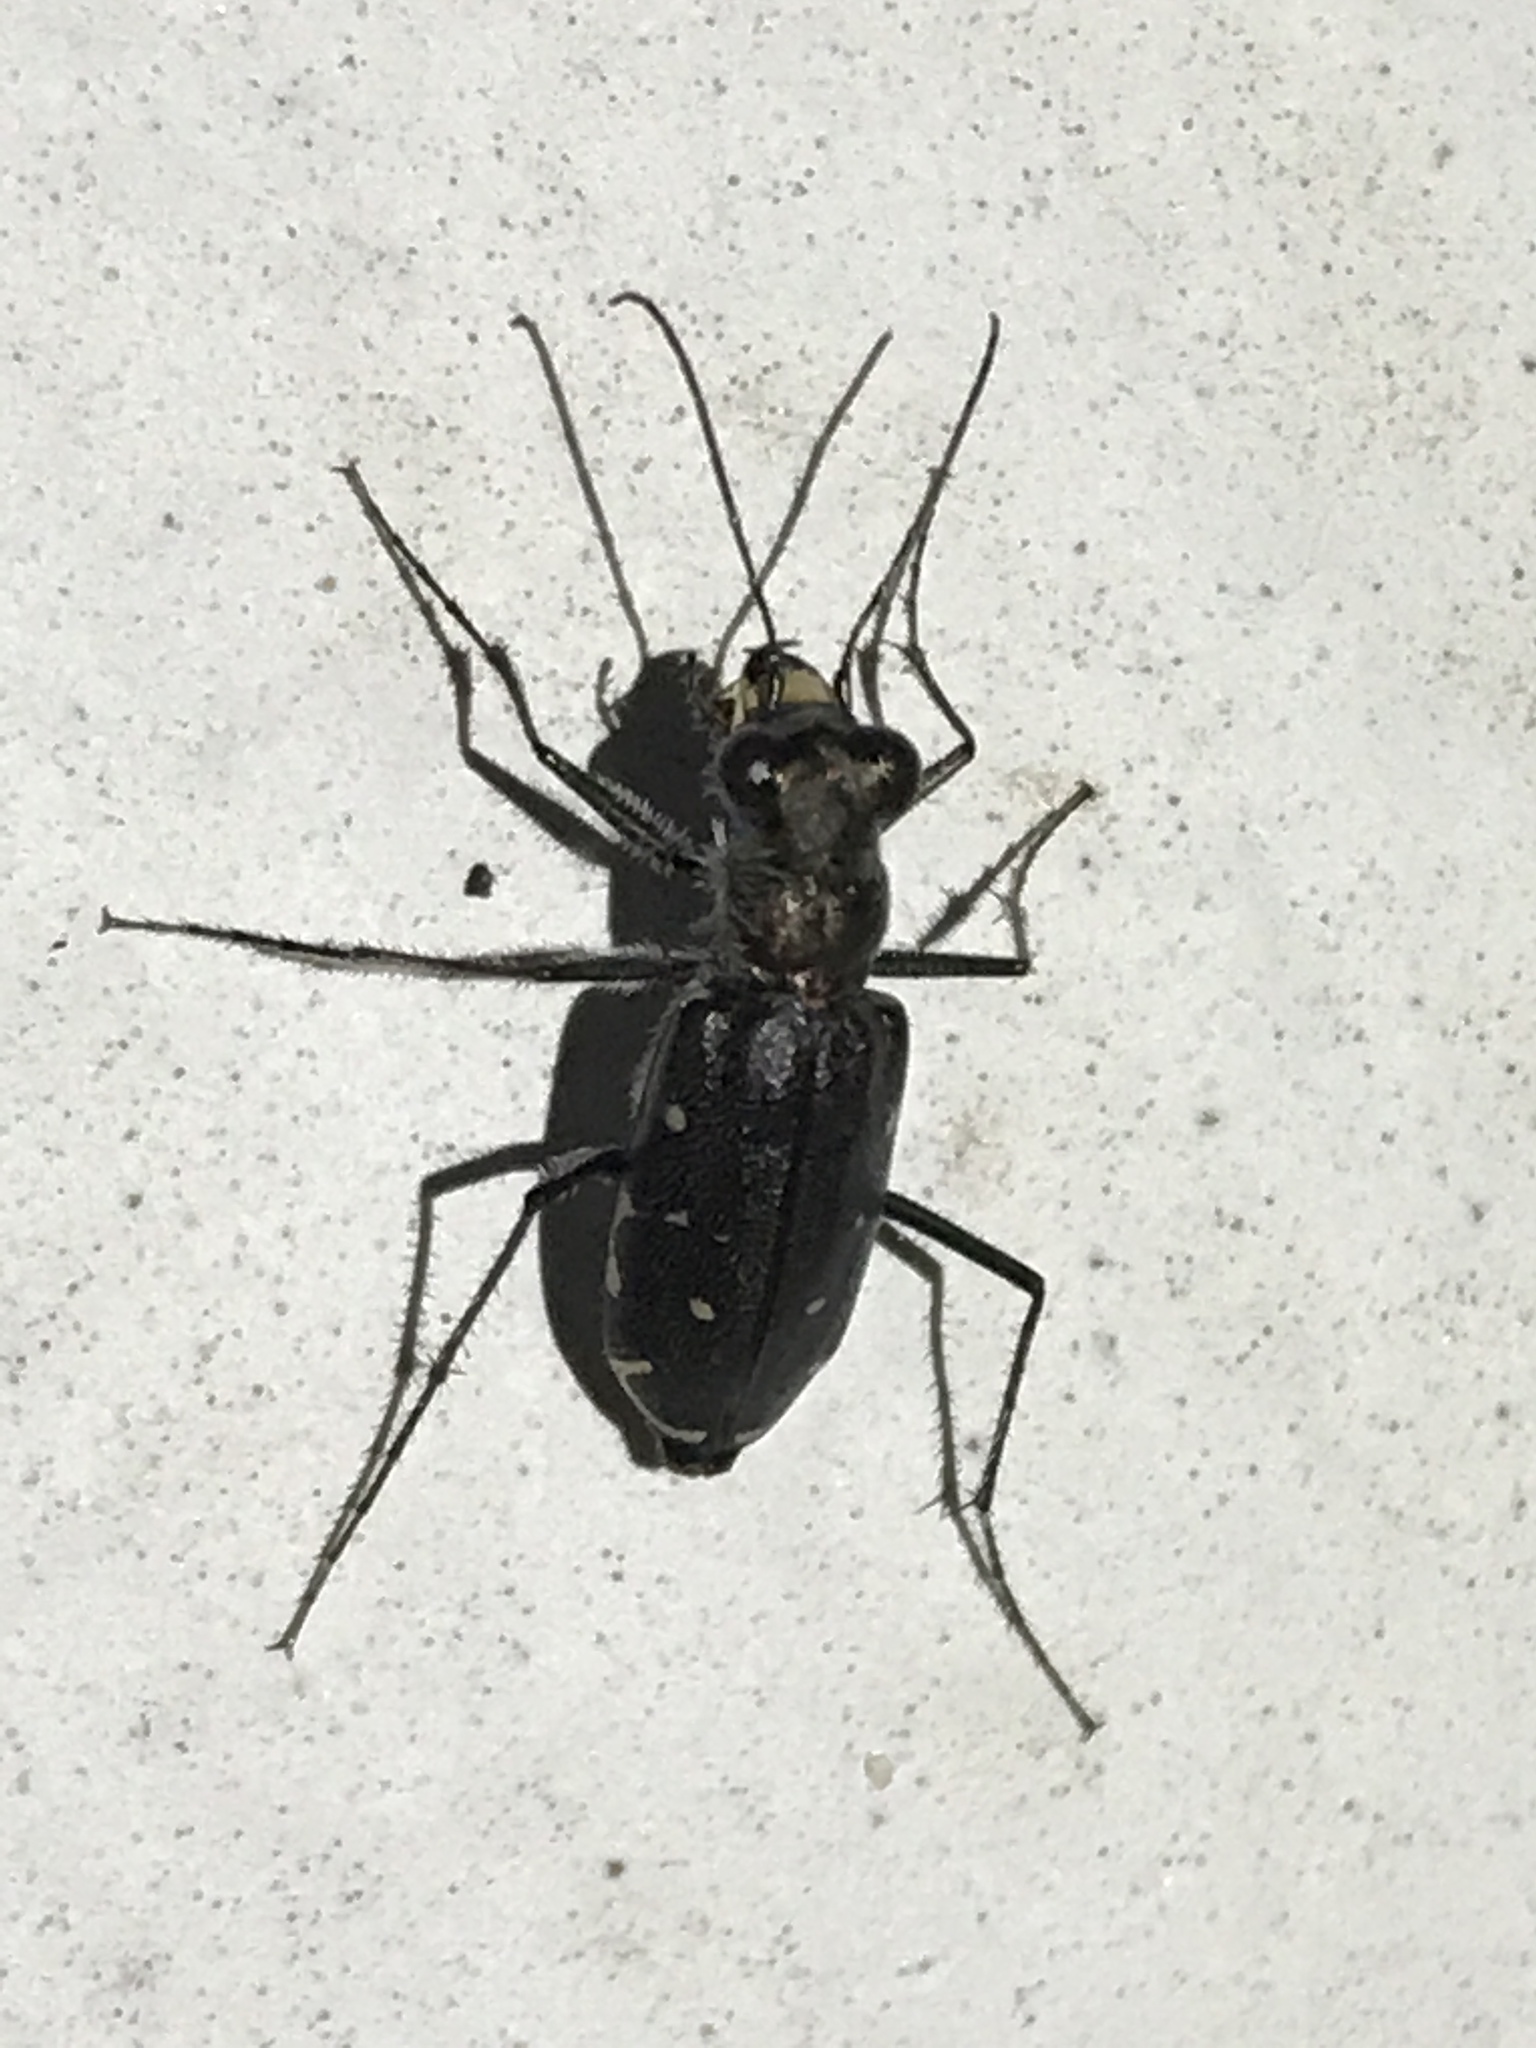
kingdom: Animalia
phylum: Arthropoda
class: Insecta
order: Coleoptera
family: Carabidae
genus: Cicindela
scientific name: Cicindela punctulata
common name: Punctured tiger beetle
